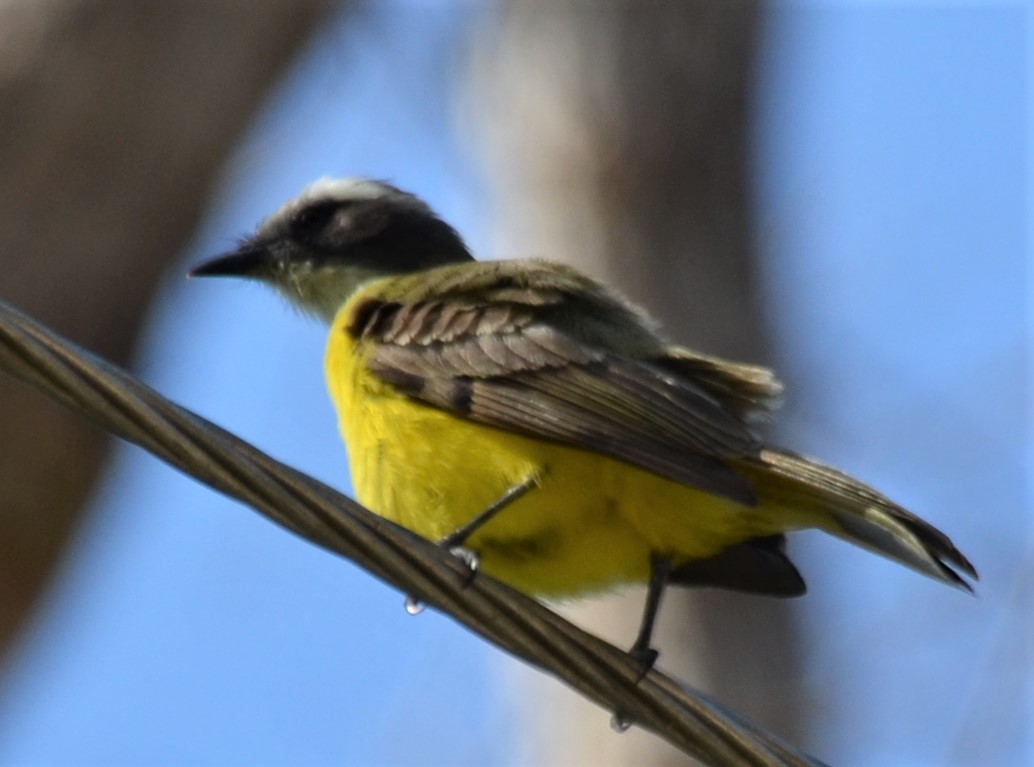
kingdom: Animalia
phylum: Chordata
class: Aves
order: Passeriformes
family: Tyrannidae
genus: Myiozetetes
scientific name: Myiozetetes similis
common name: Social flycatcher
